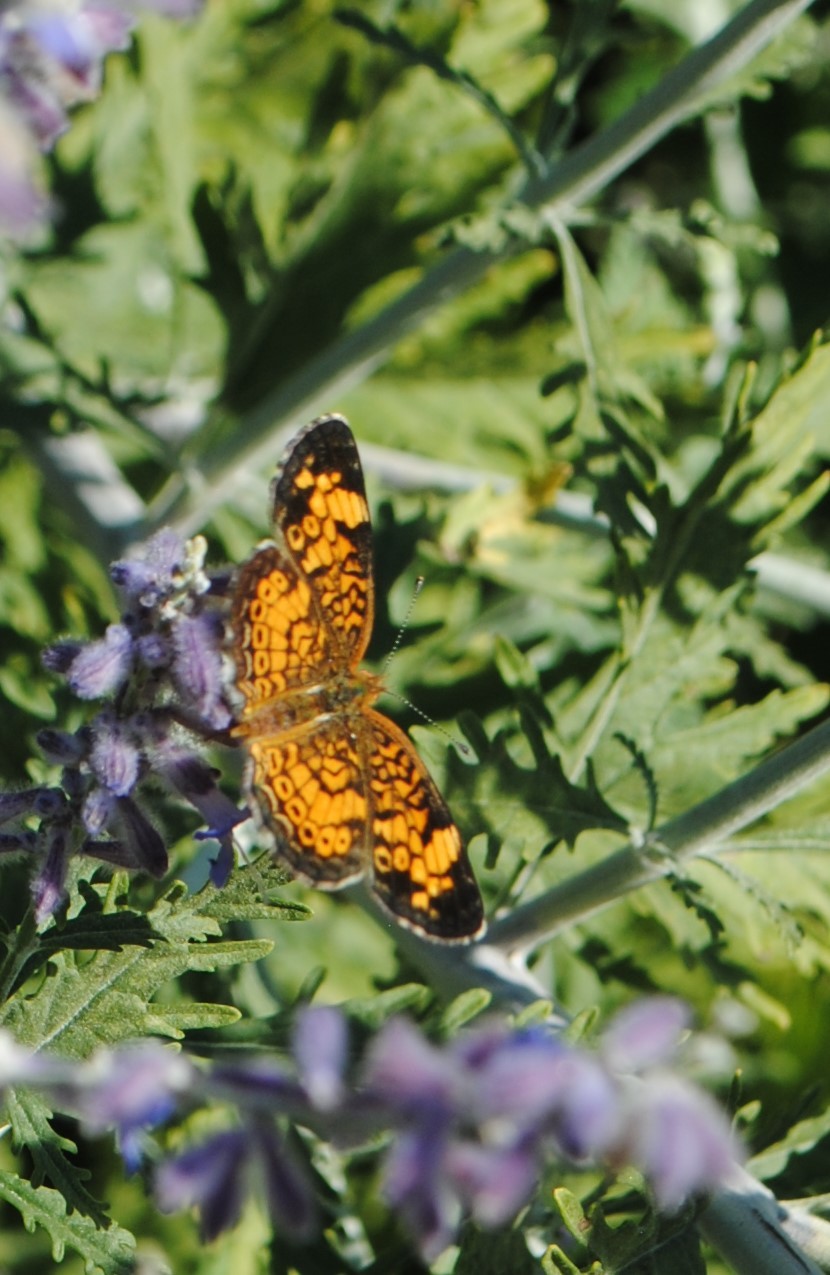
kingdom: Animalia
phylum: Arthropoda
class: Insecta
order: Lepidoptera
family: Nymphalidae
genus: Phyciodes
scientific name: Phyciodes tharos
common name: Pearl crescent
